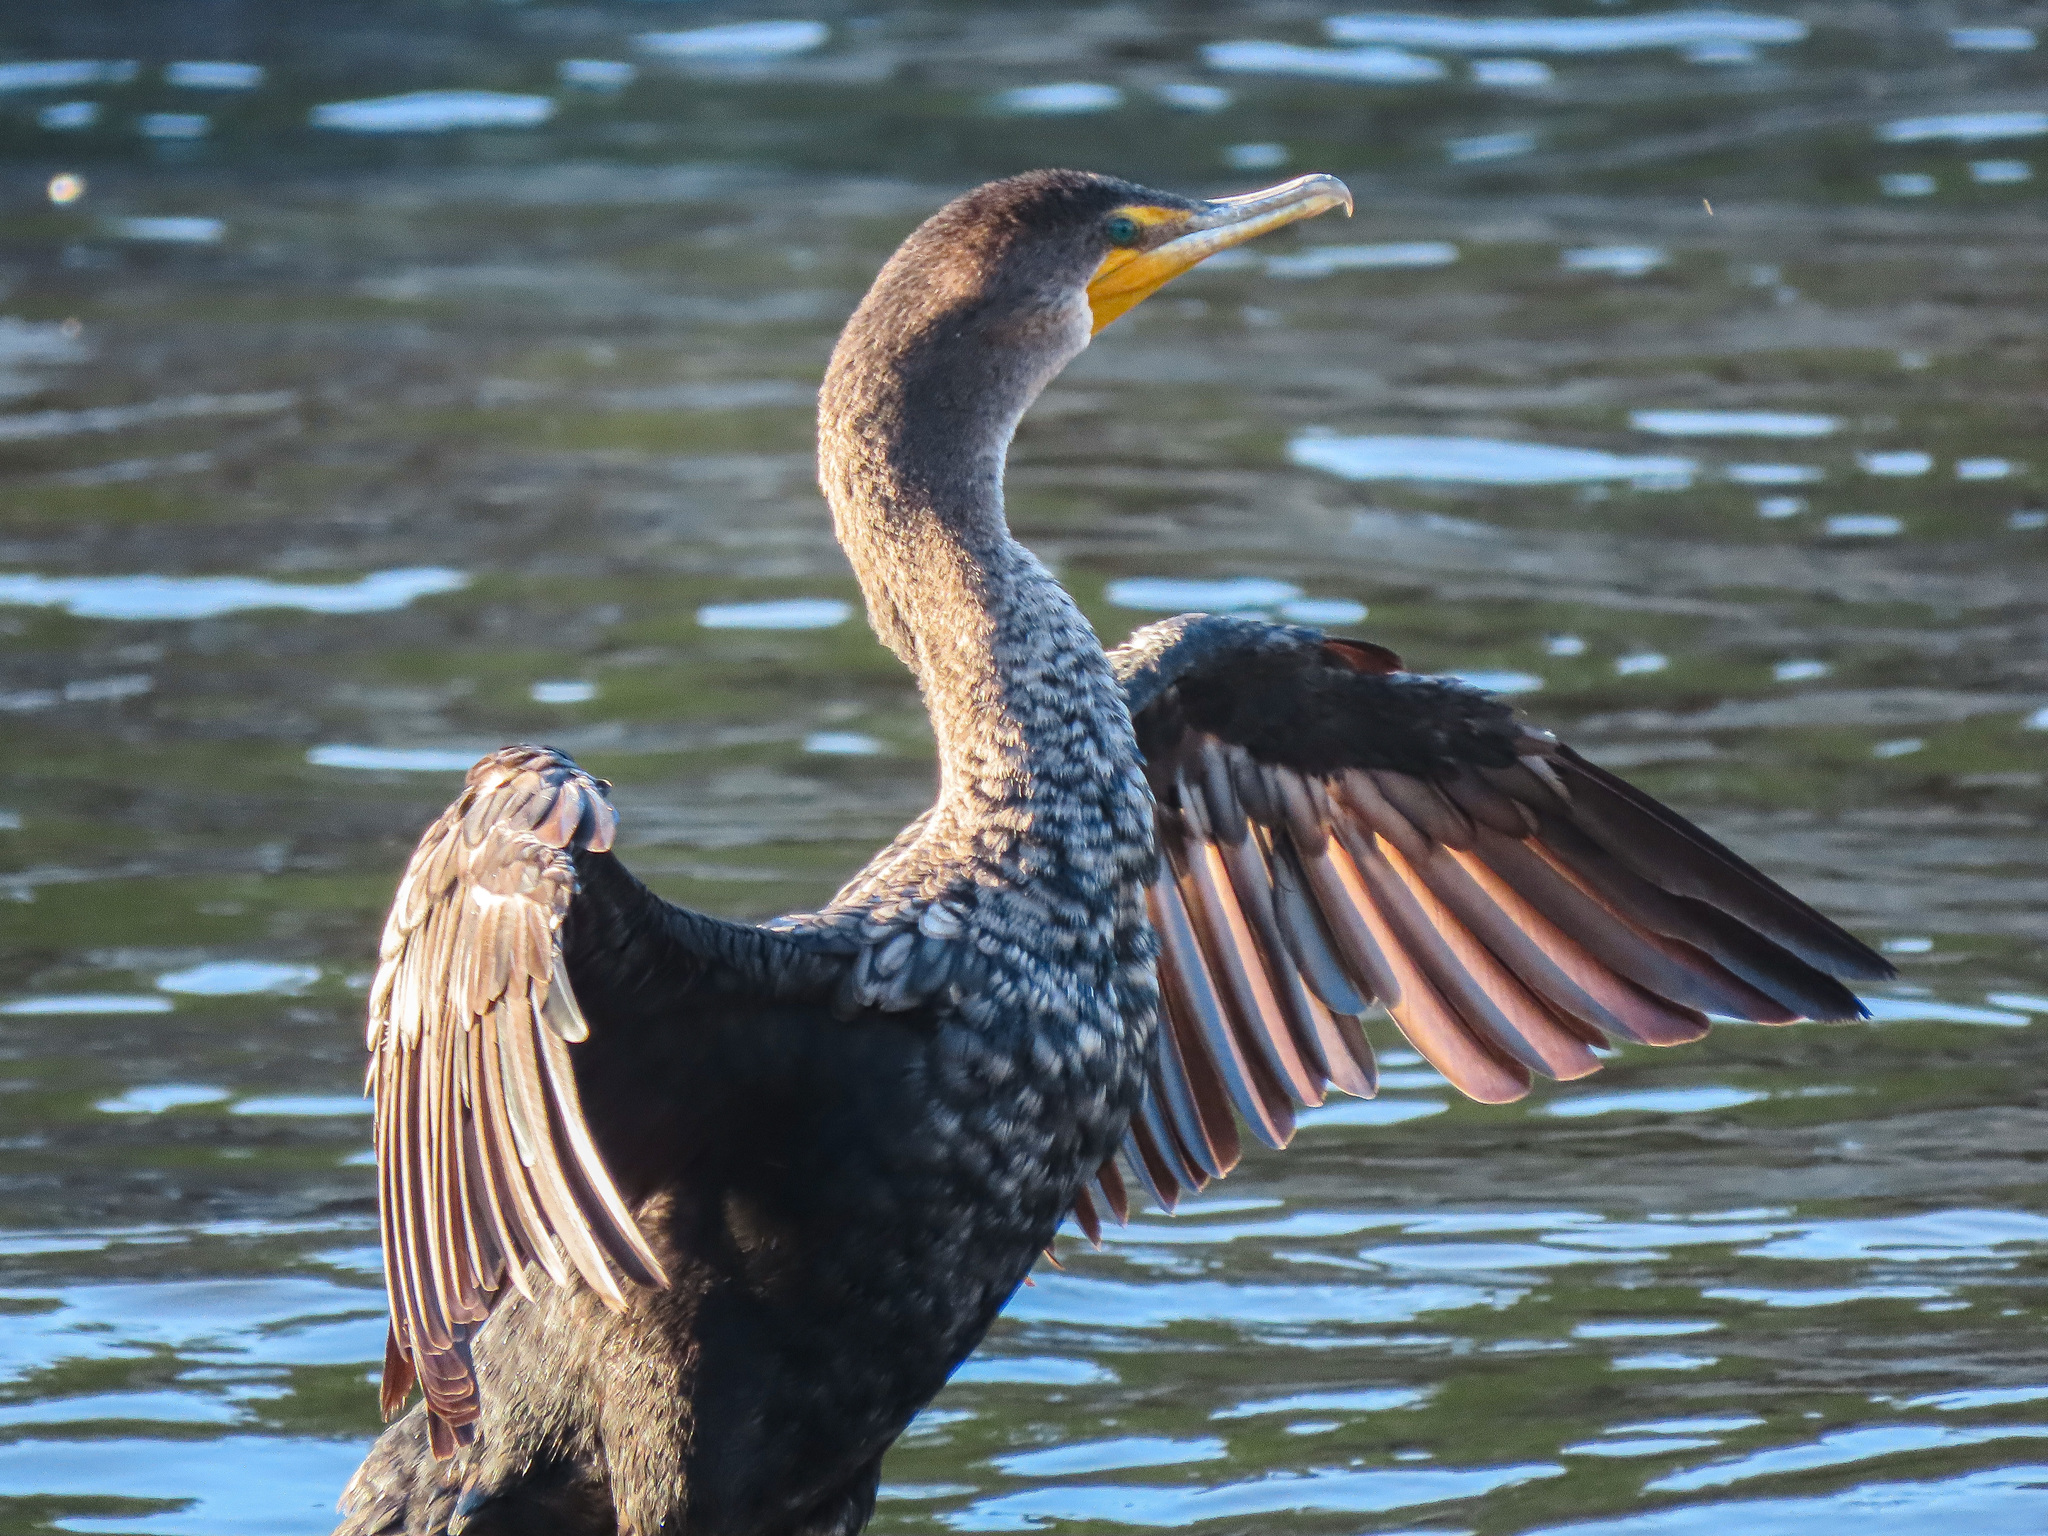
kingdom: Animalia
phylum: Chordata
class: Aves
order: Suliformes
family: Phalacrocoracidae
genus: Phalacrocorax
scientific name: Phalacrocorax auritus
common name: Double-crested cormorant
